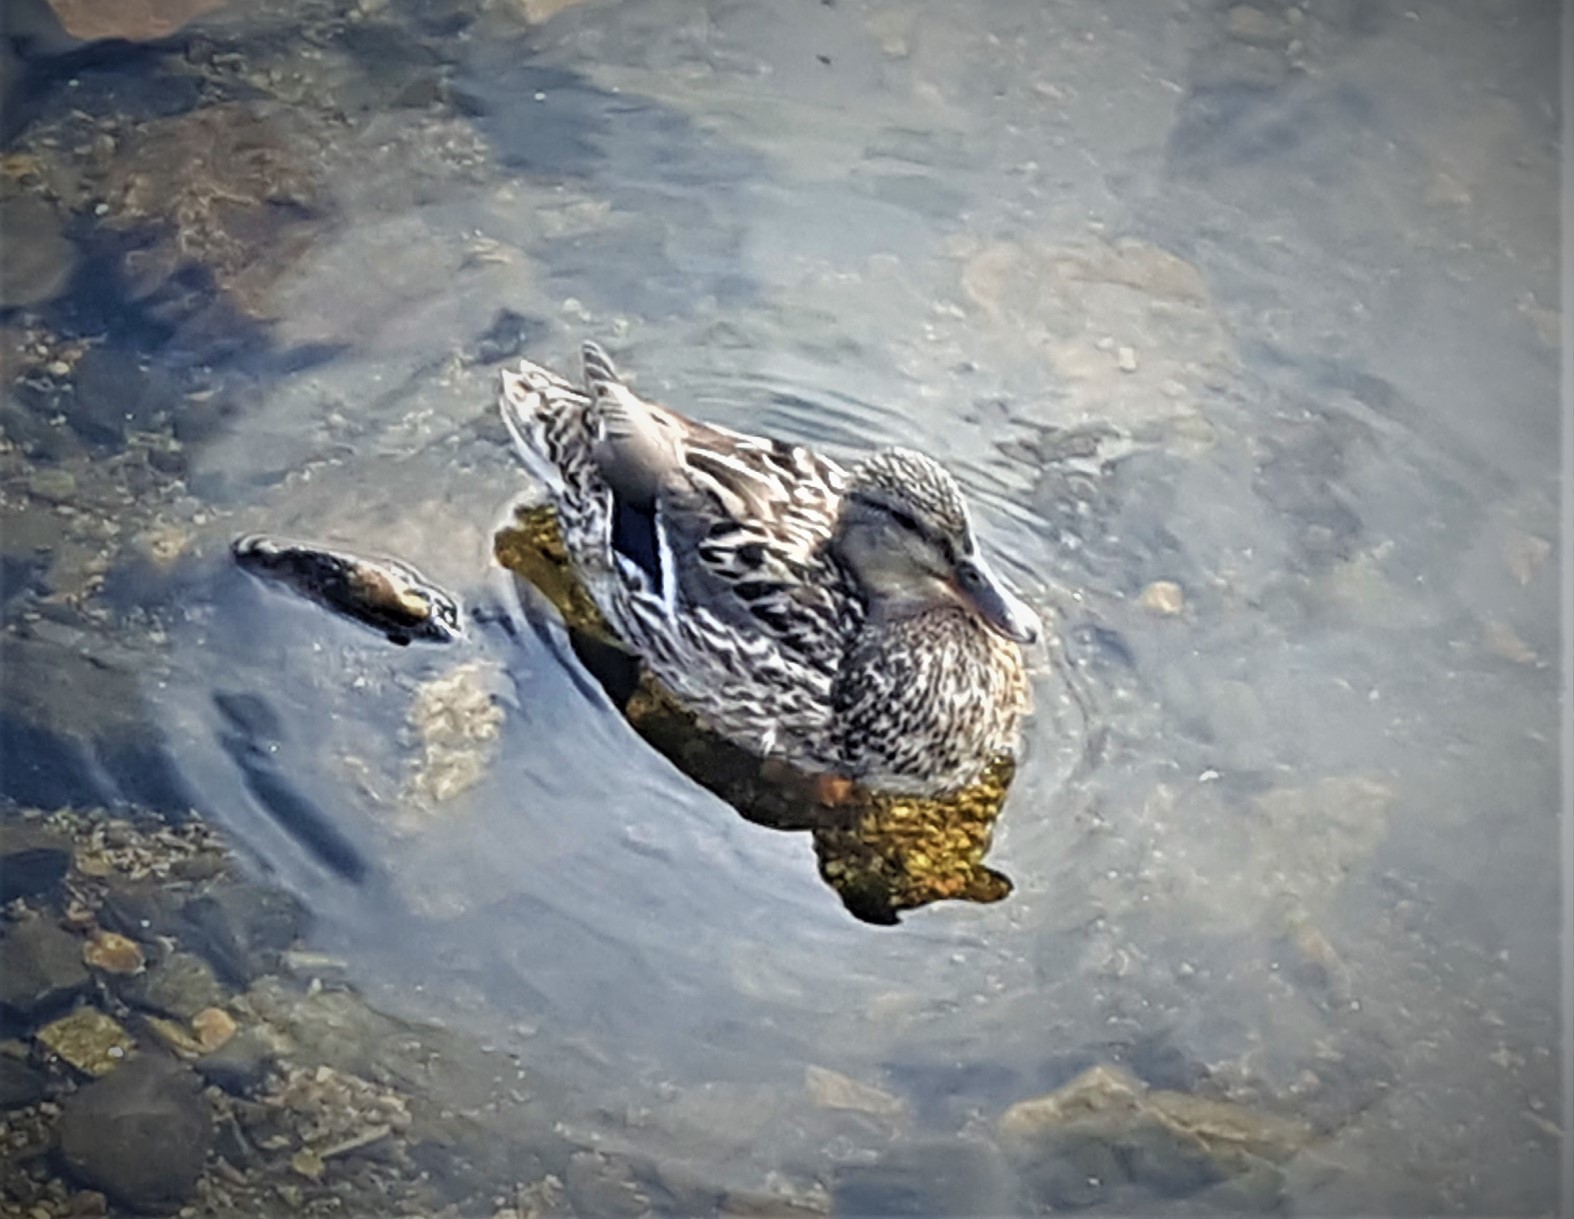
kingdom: Animalia
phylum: Chordata
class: Aves
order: Anseriformes
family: Anatidae
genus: Anas
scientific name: Anas platyrhynchos
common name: Mallard
